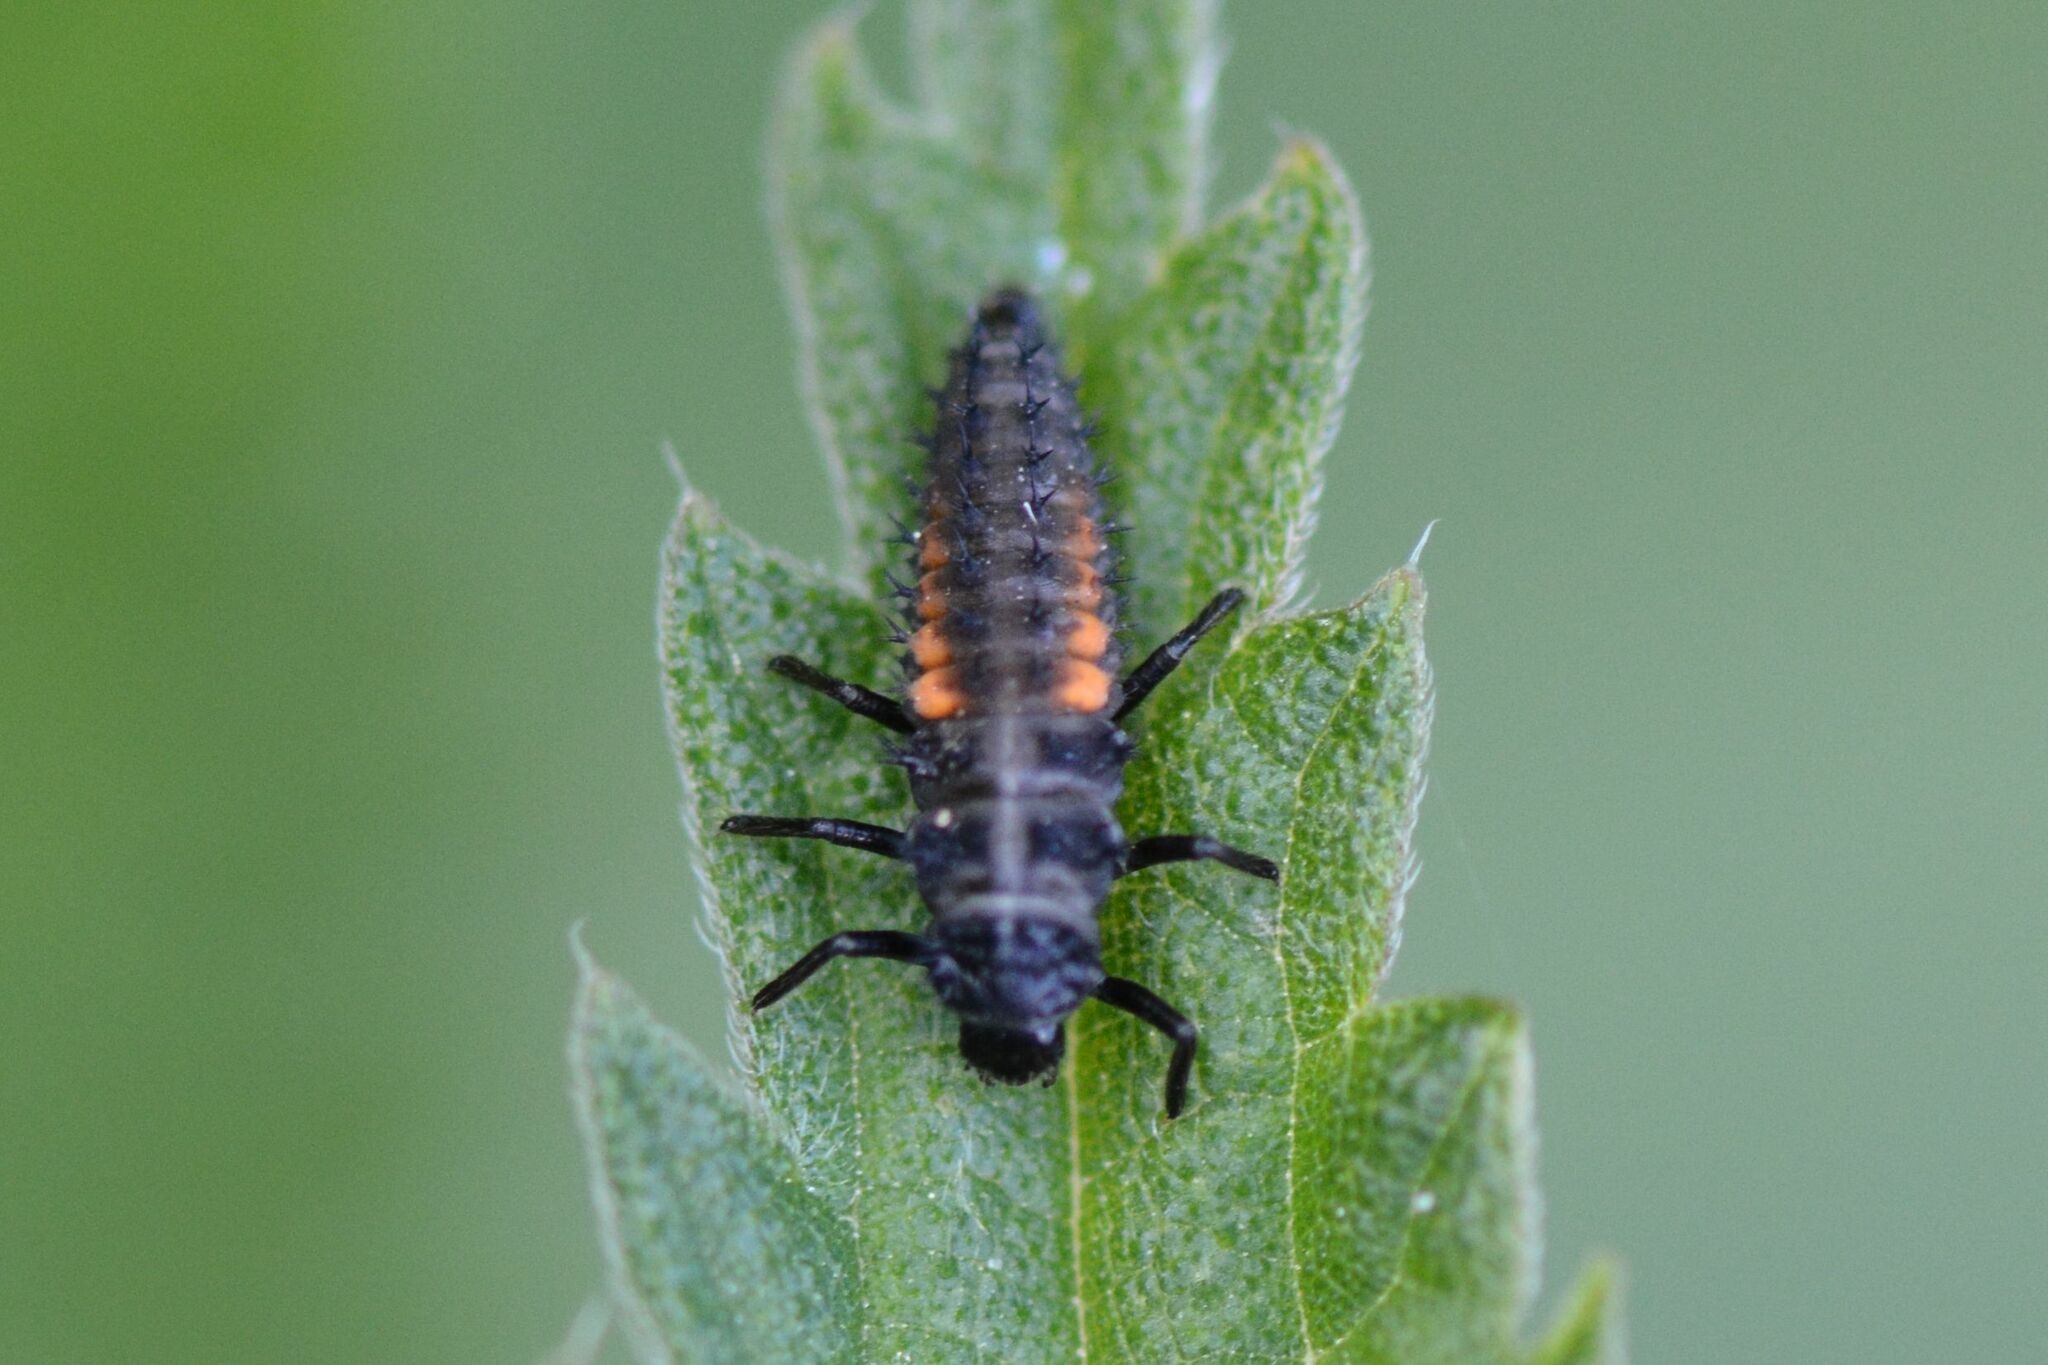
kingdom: Animalia
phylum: Arthropoda
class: Insecta
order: Coleoptera
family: Coccinellidae
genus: Harmonia
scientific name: Harmonia axyridis
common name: Harlequin ladybird
